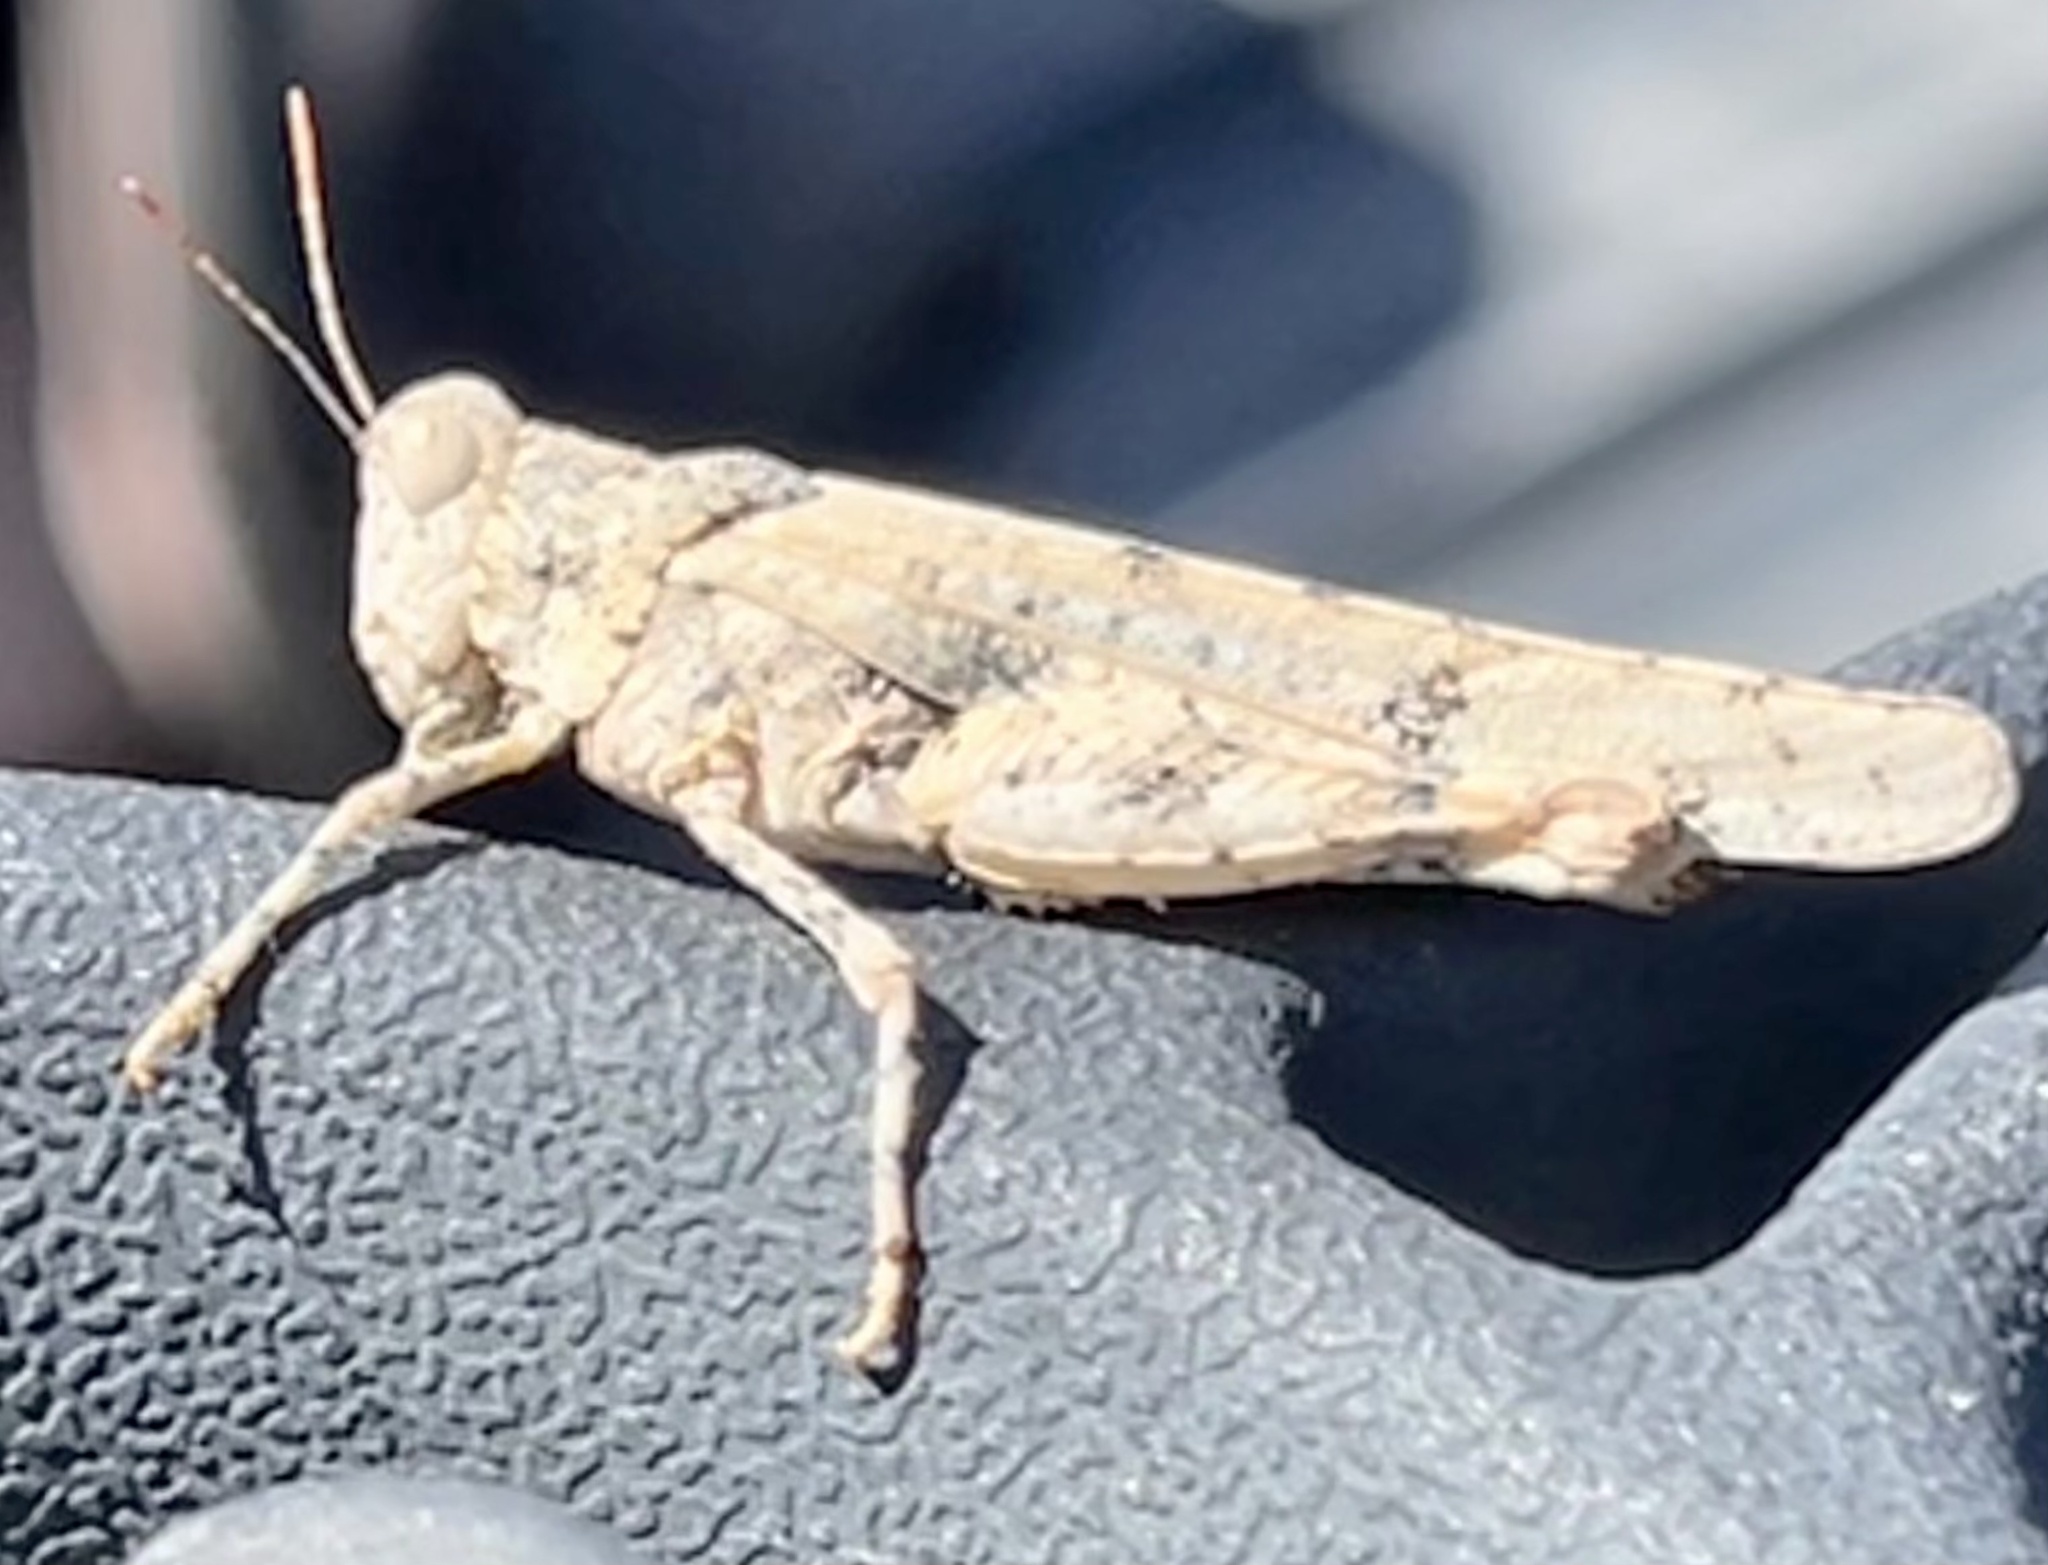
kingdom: Animalia
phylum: Arthropoda
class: Insecta
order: Orthoptera
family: Acrididae
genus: Cibolacris
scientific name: Cibolacris parviceps
